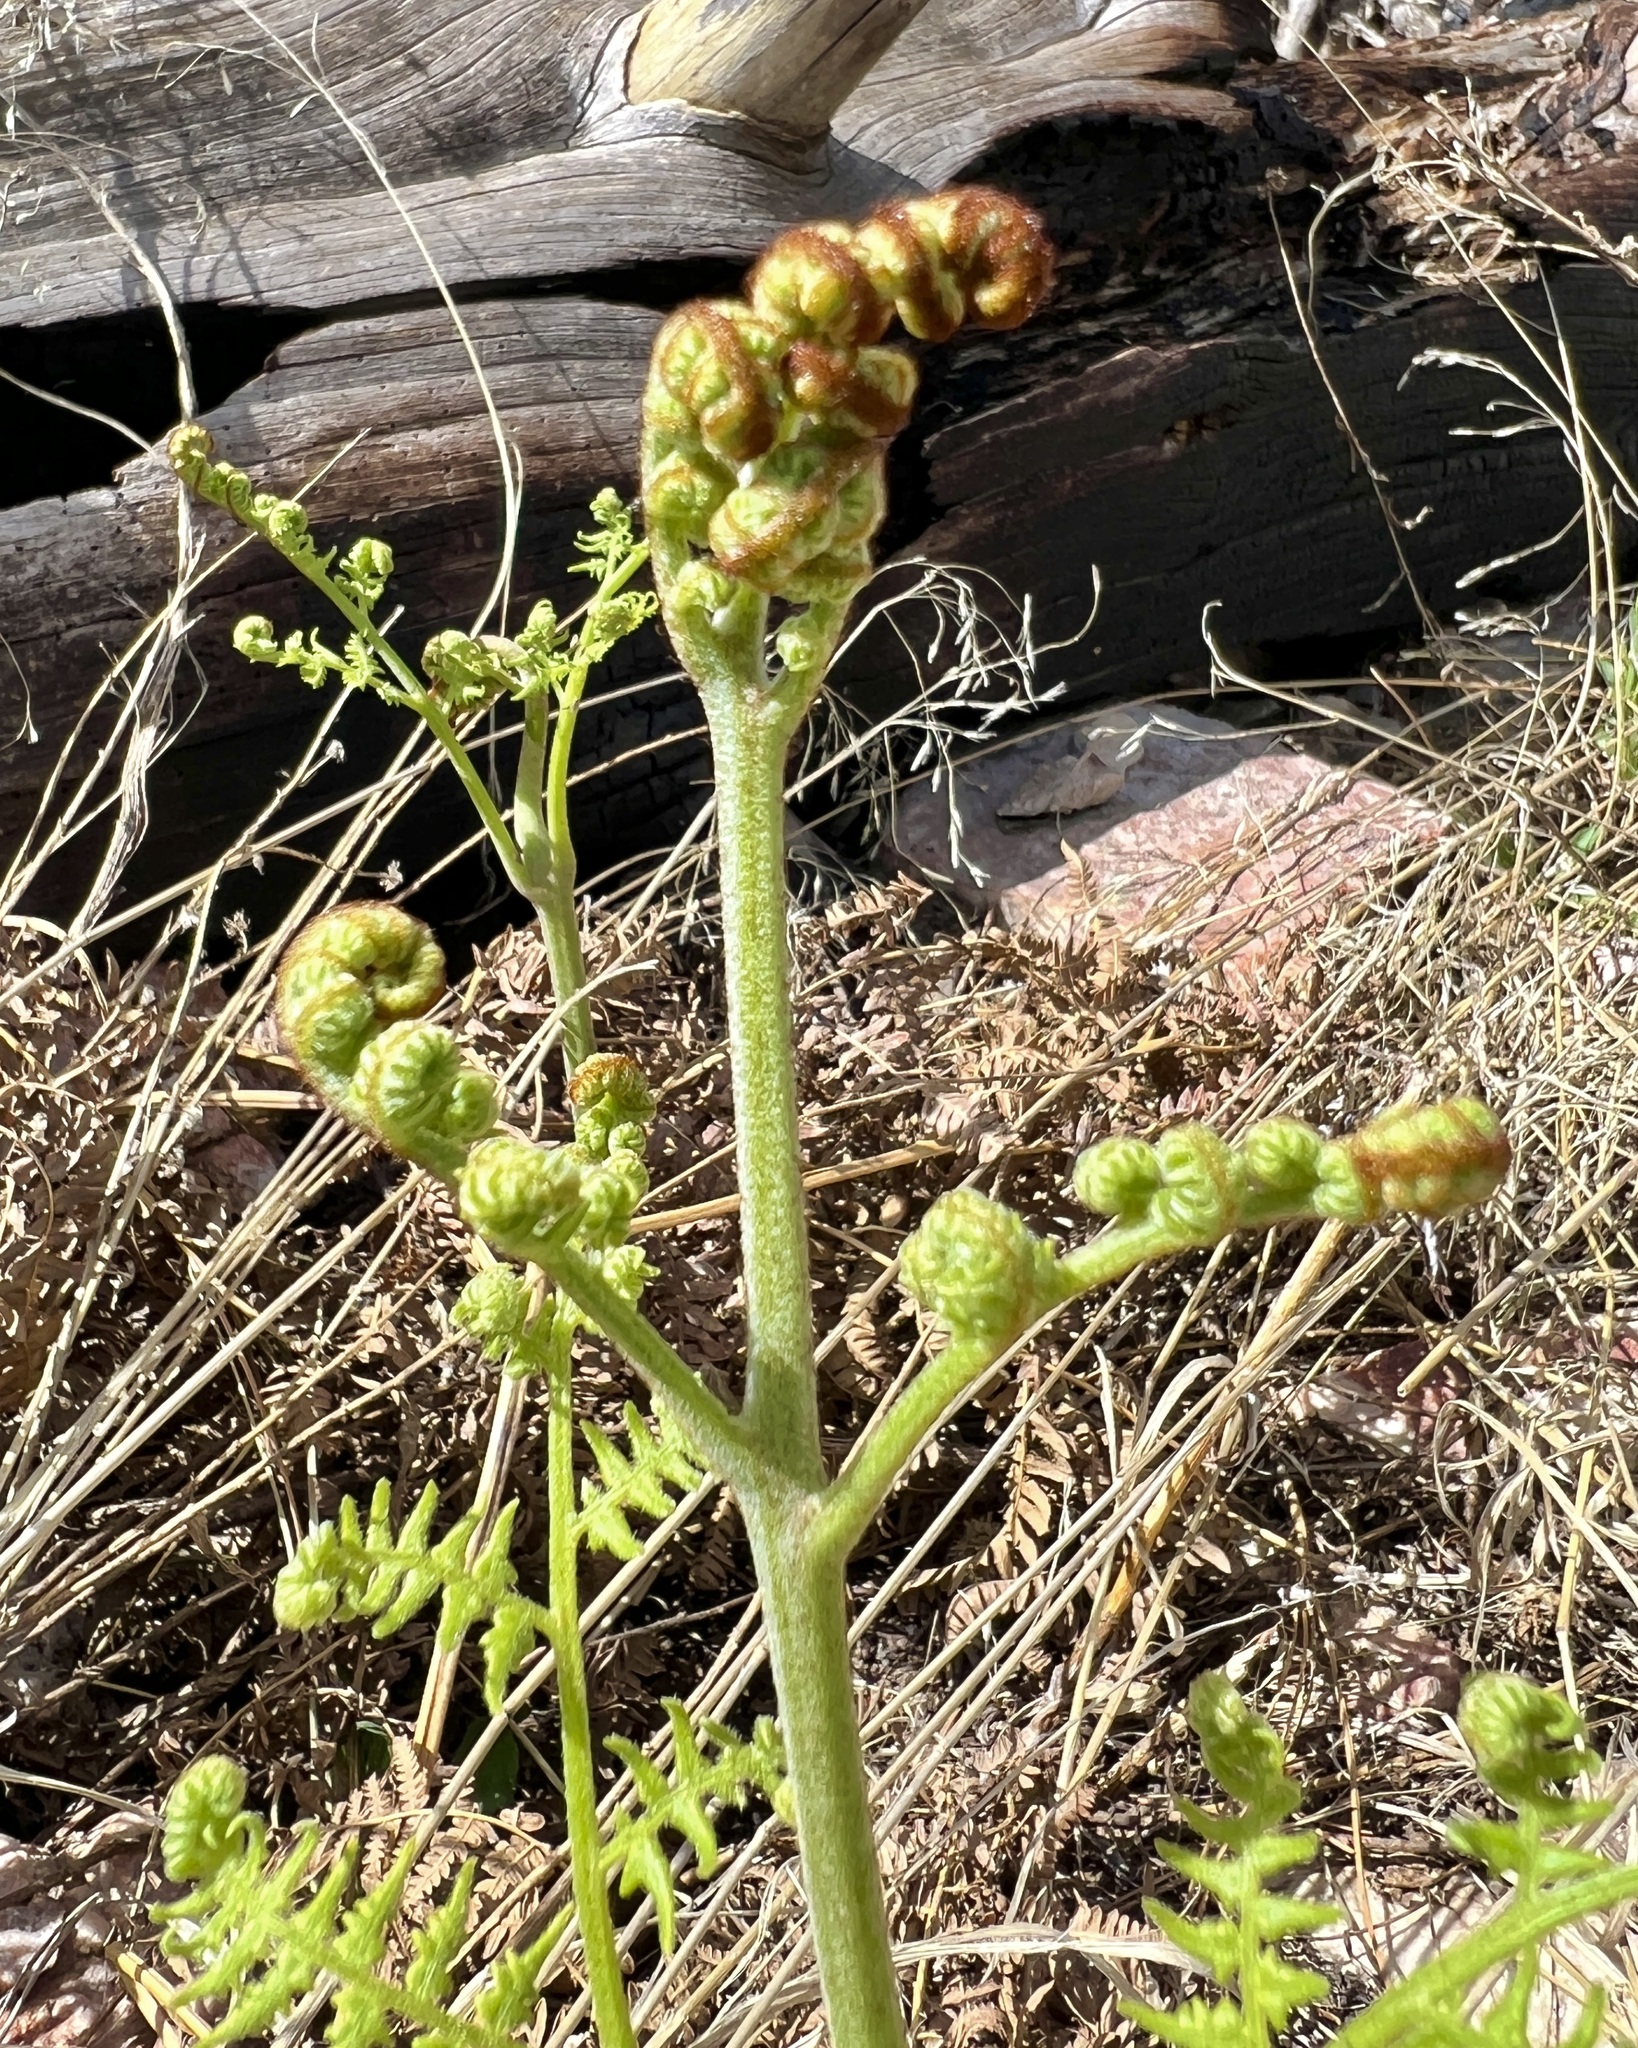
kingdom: Plantae
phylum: Tracheophyta
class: Polypodiopsida
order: Polypodiales
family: Dennstaedtiaceae
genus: Pteridium
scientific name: Pteridium aquilinum
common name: Bracken
